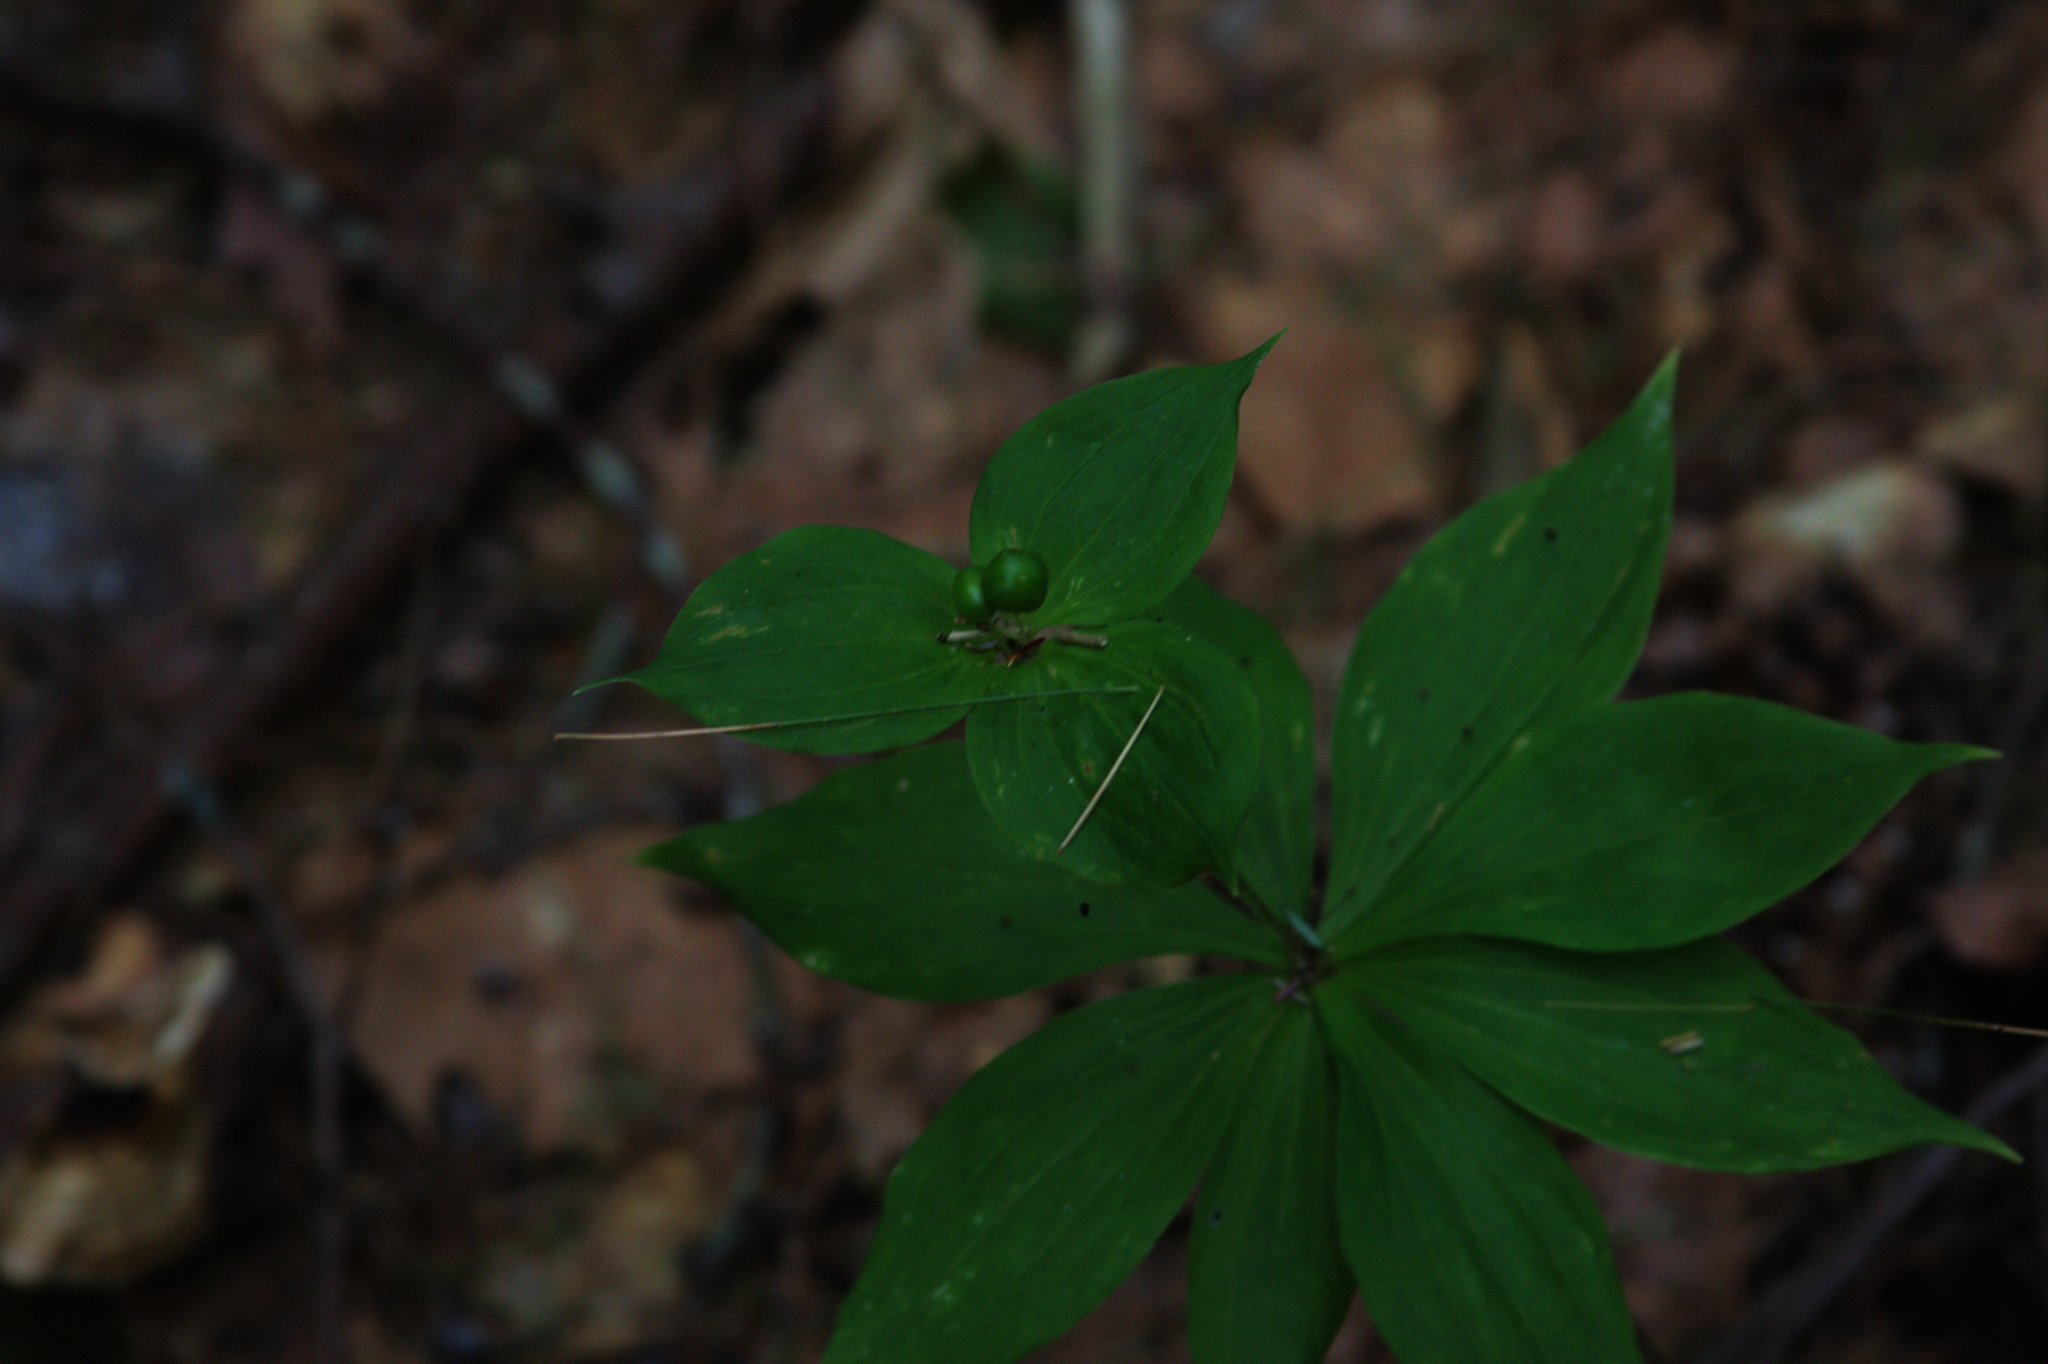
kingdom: Plantae
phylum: Tracheophyta
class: Liliopsida
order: Liliales
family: Liliaceae
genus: Medeola
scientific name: Medeola virginiana
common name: Indian cucumber-root
